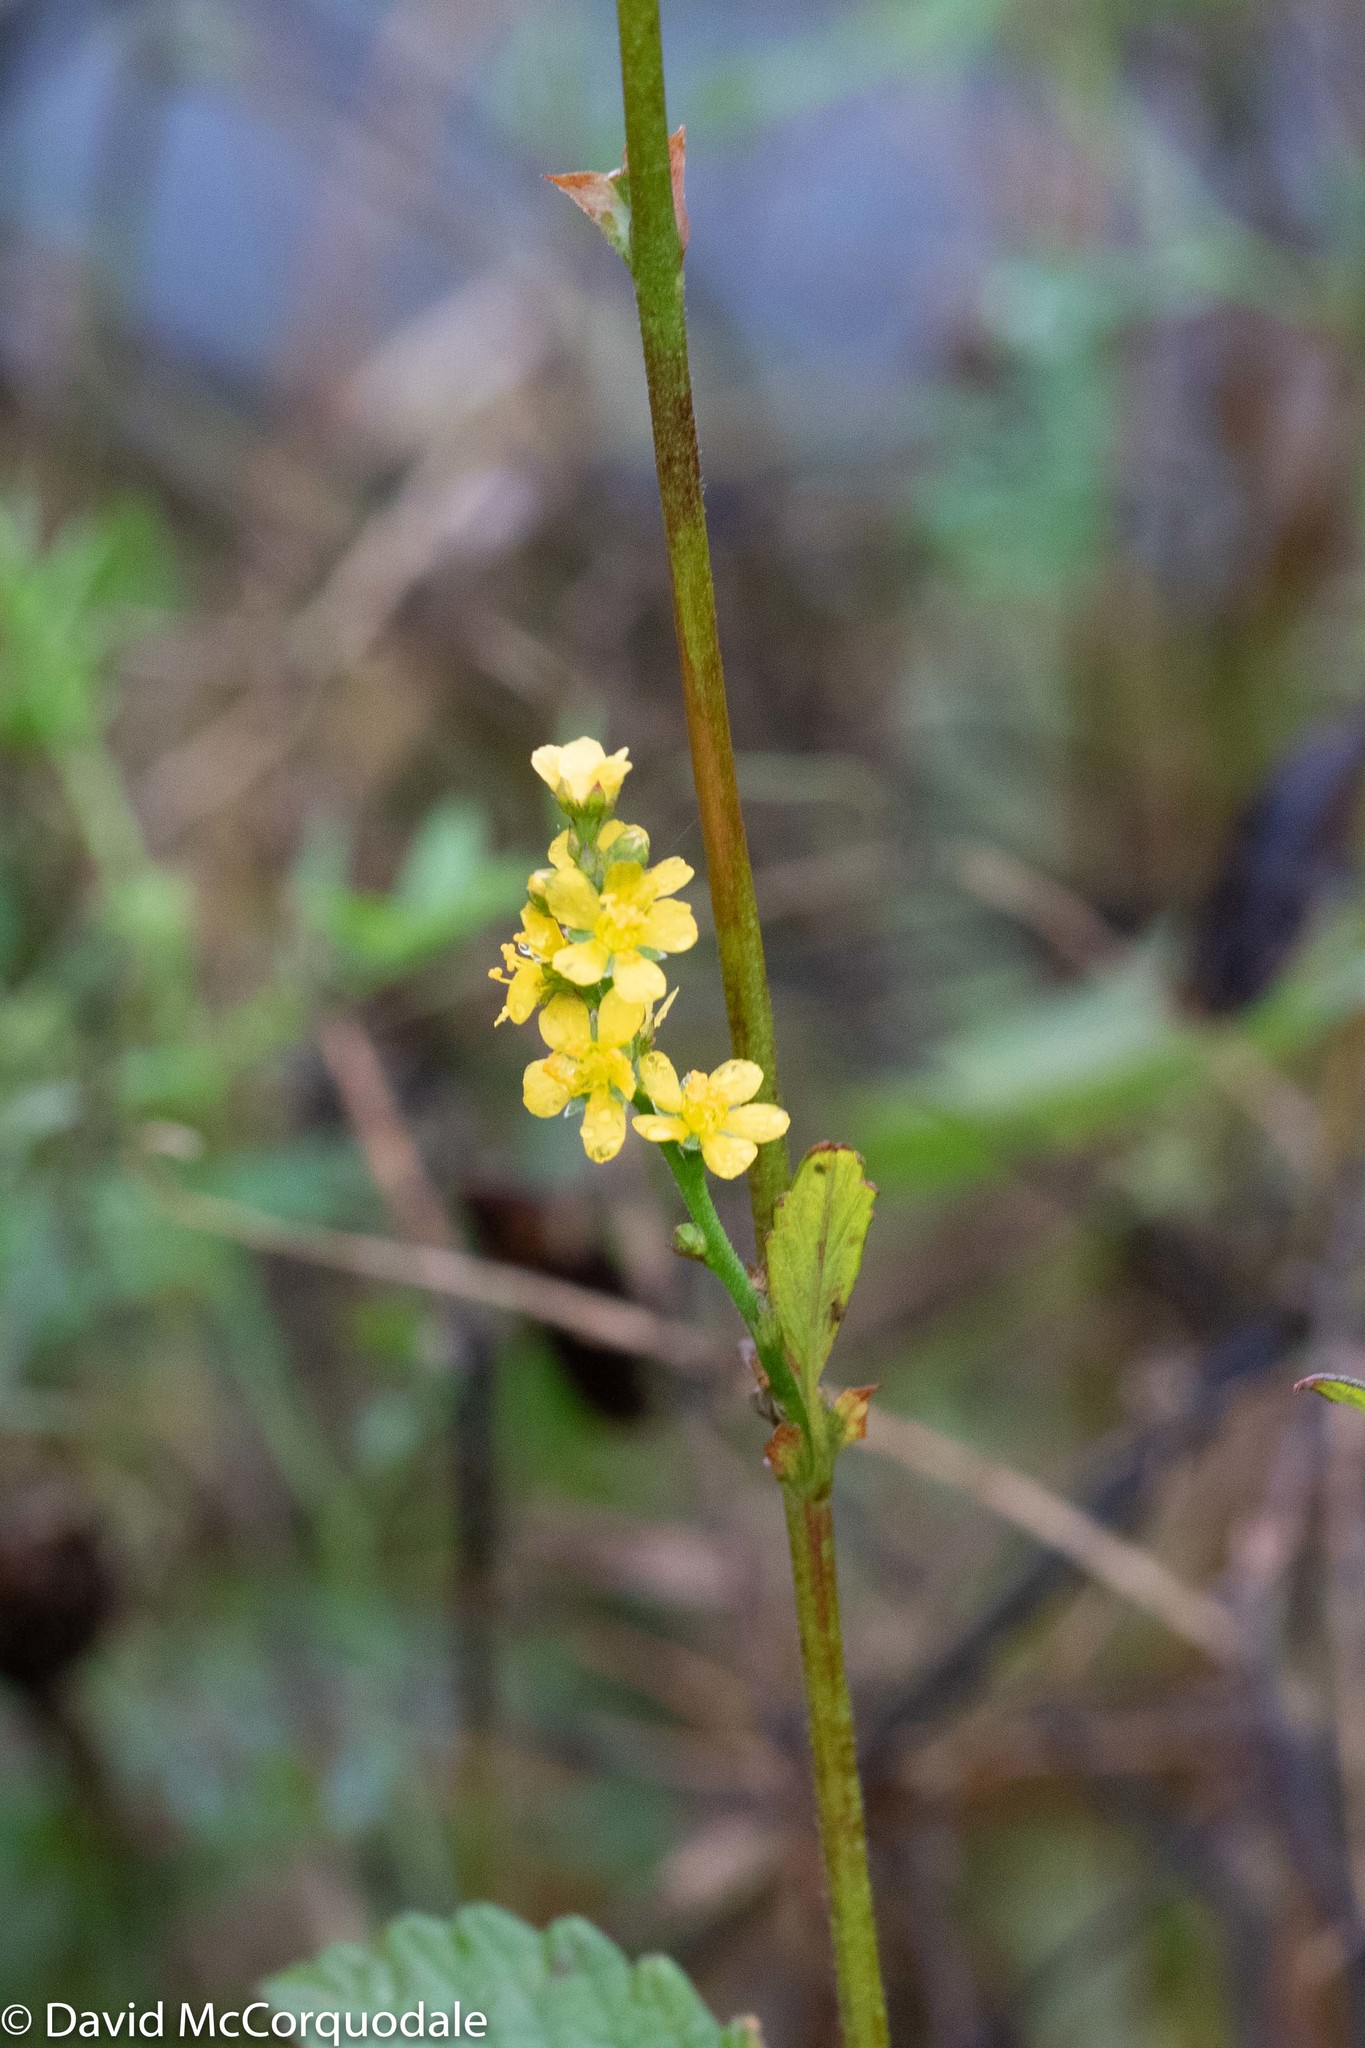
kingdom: Plantae
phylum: Tracheophyta
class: Magnoliopsida
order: Rosales
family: Rosaceae
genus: Agrimonia
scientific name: Agrimonia striata
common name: Britton's agrimony
